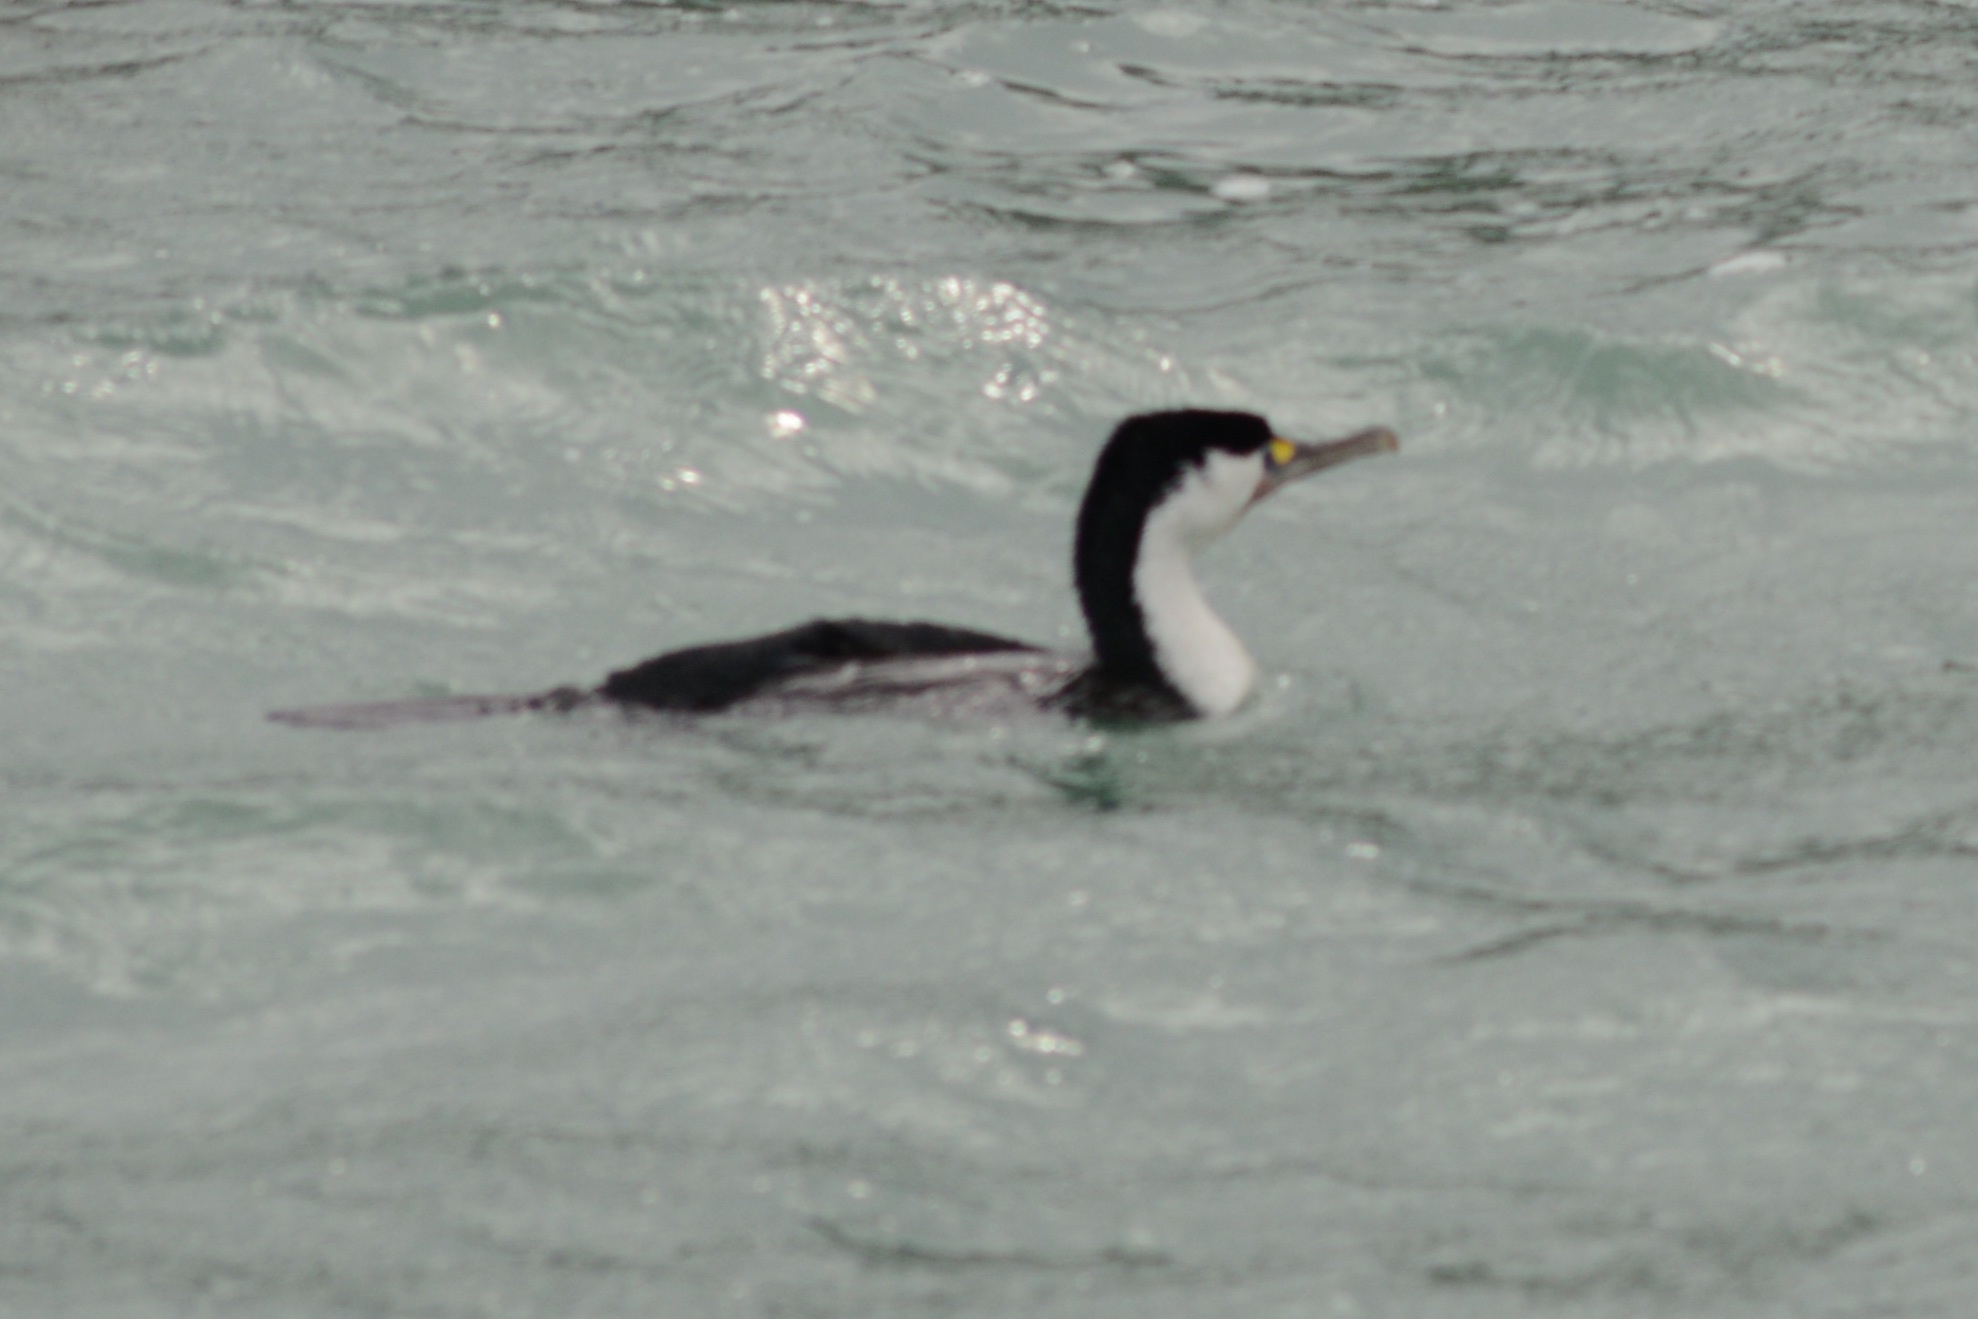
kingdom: Animalia
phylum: Chordata
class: Aves
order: Suliformes
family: Phalacrocoracidae
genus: Phalacrocorax
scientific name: Phalacrocorax varius
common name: Pied cormorant
